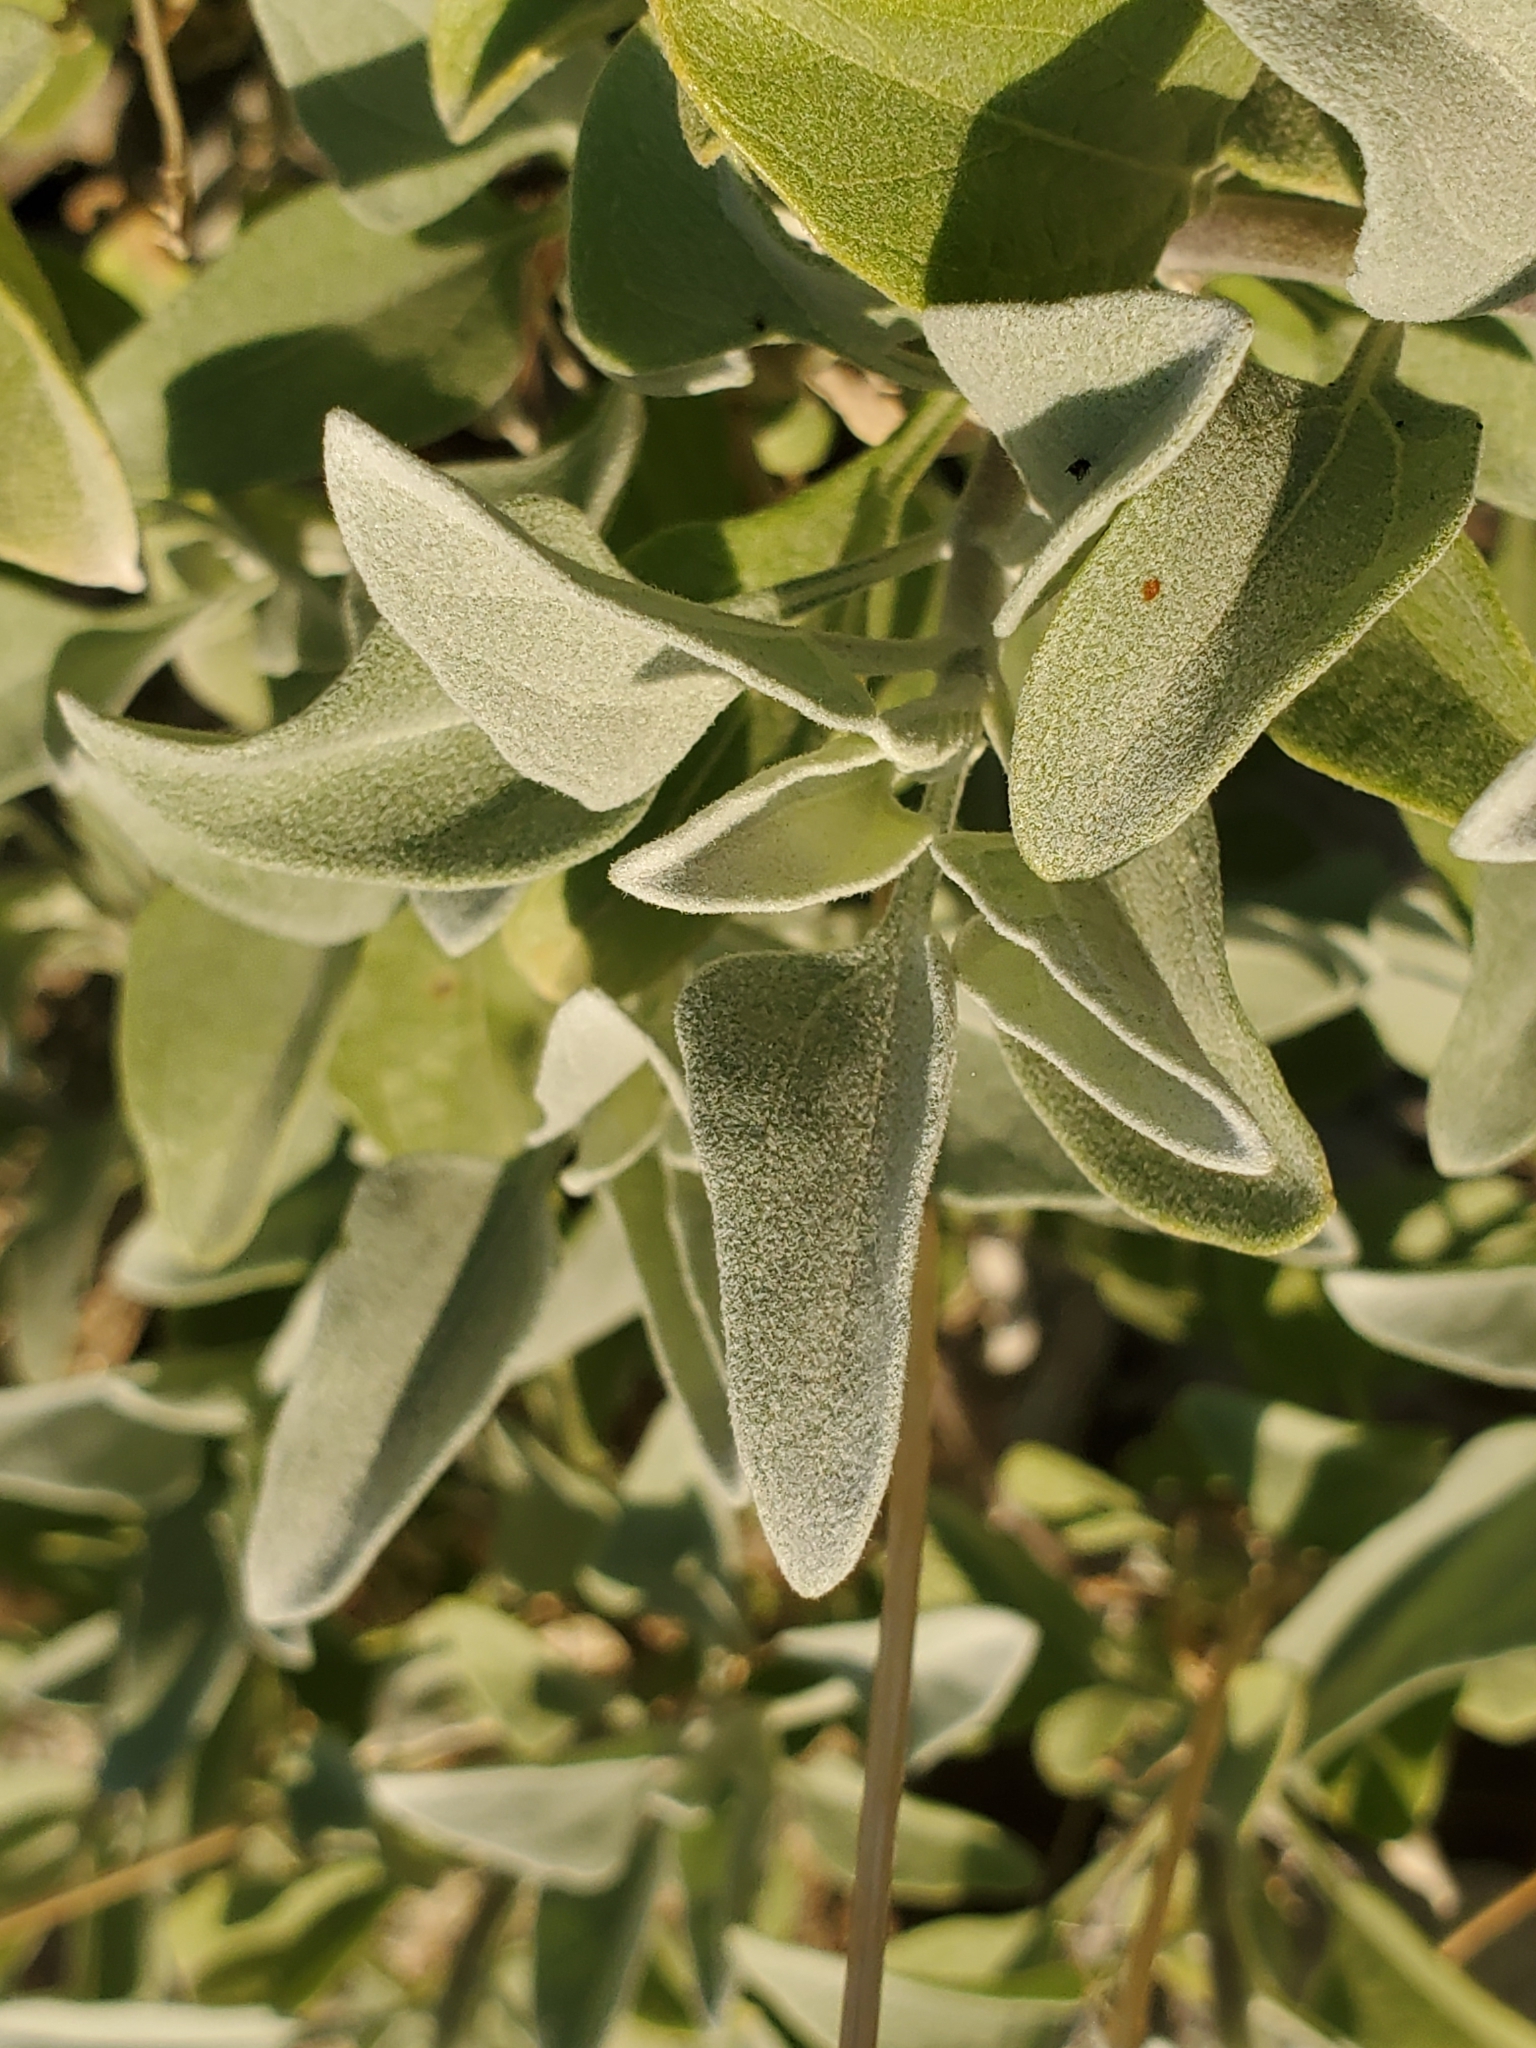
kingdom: Plantae
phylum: Tracheophyta
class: Magnoliopsida
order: Asterales
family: Asteraceae
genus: Encelia
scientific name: Encelia farinosa
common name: Brittlebush
